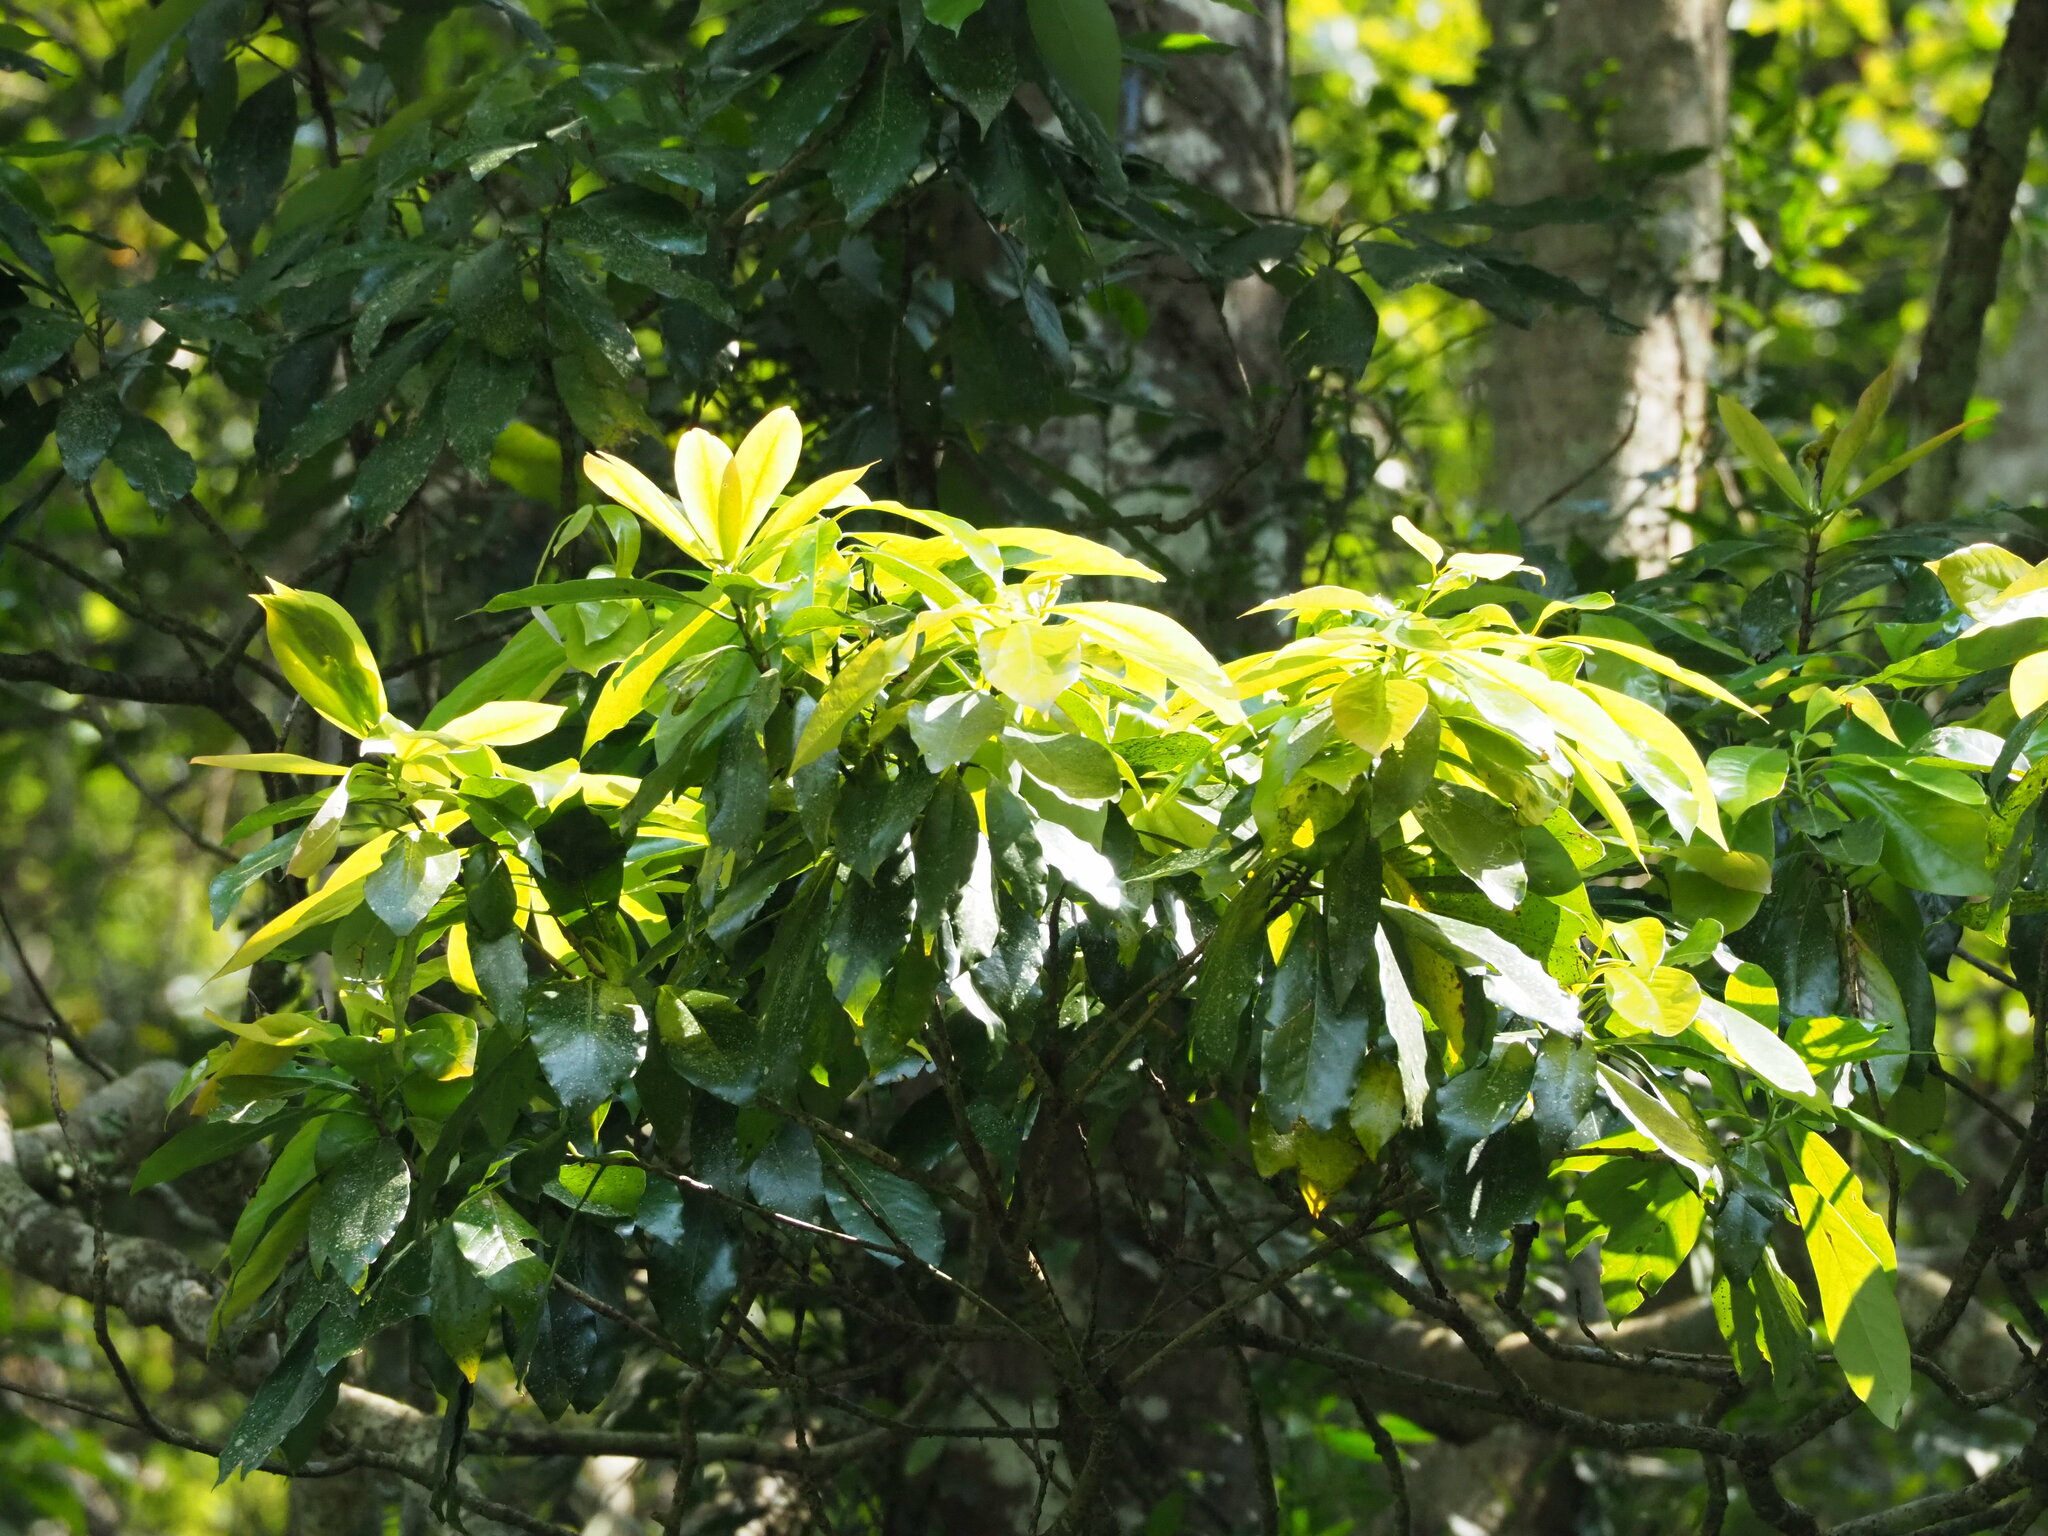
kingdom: Plantae
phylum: Tracheophyta
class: Magnoliopsida
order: Laurales
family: Lauraceae
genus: Machilus
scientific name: Machilus japonica
